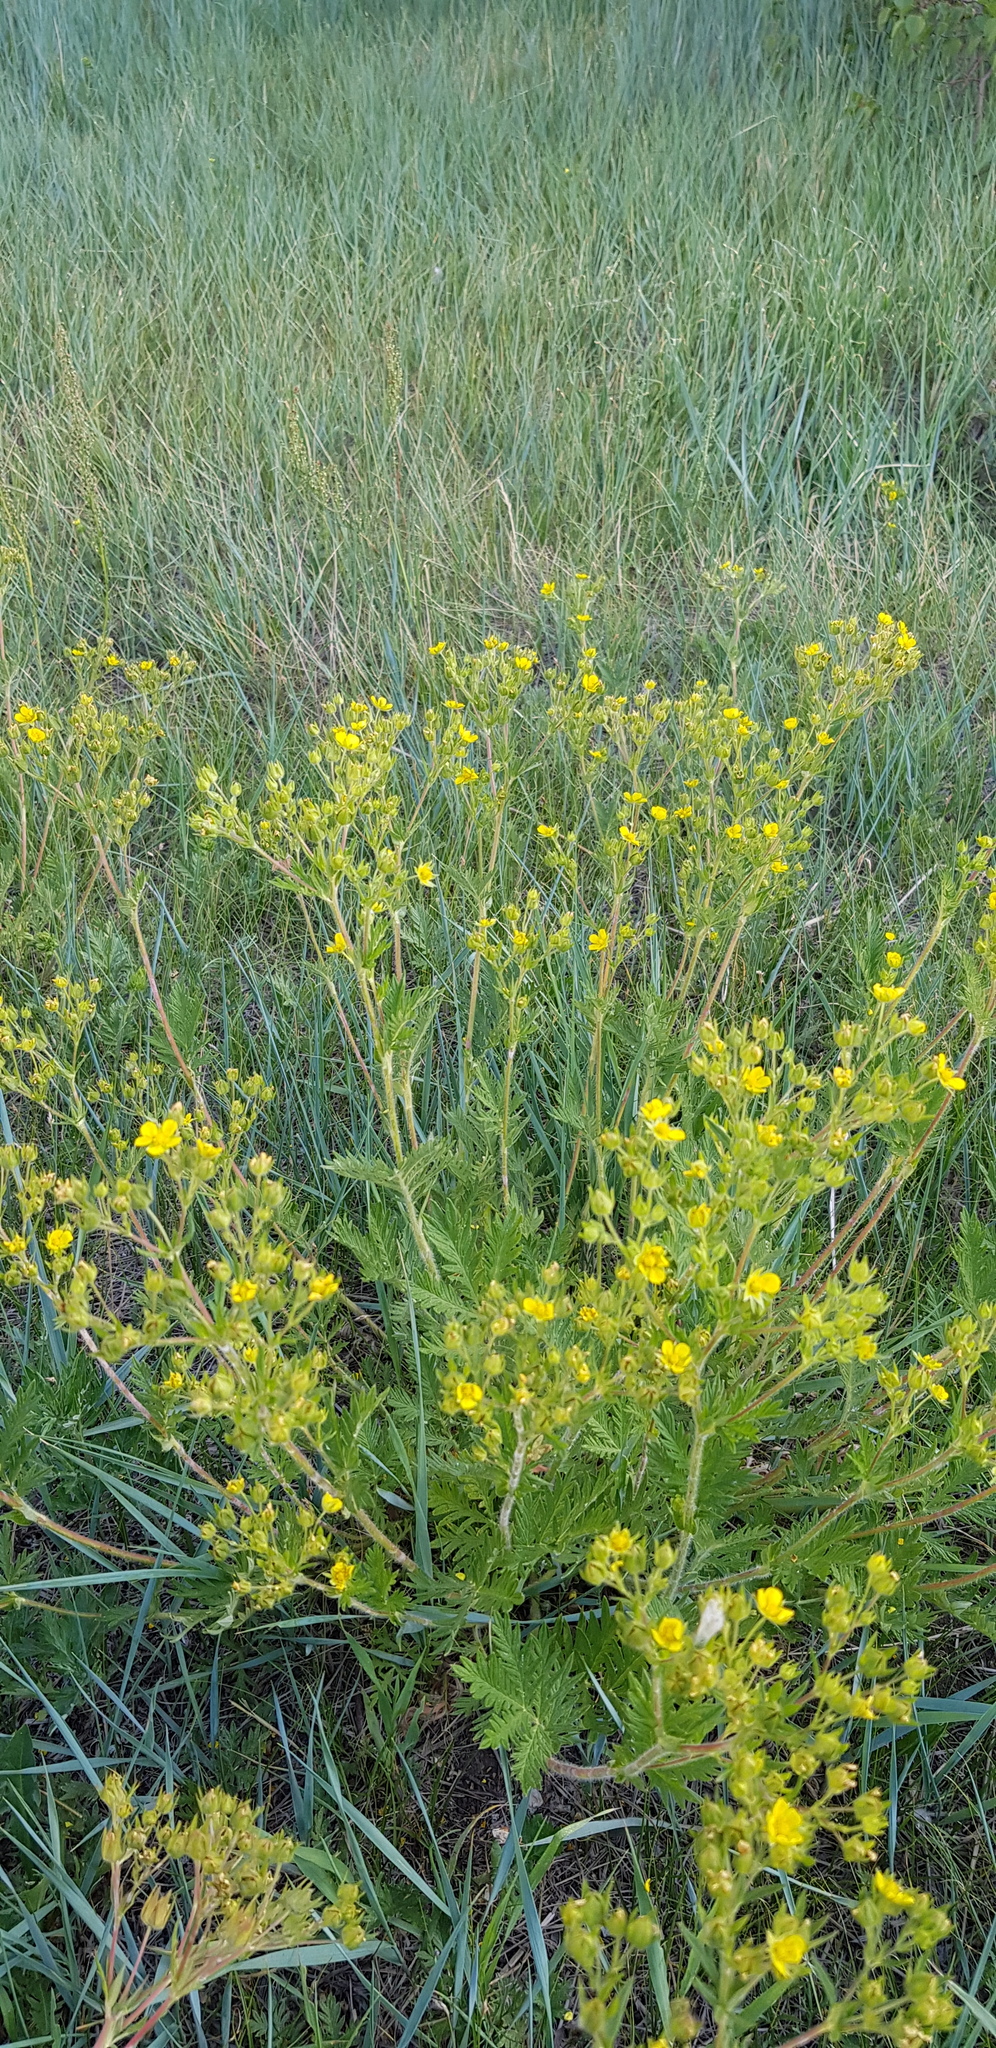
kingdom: Plantae
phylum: Tracheophyta
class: Magnoliopsida
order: Rosales
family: Rosaceae
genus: Potentilla
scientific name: Potentilla tanacetifolia
